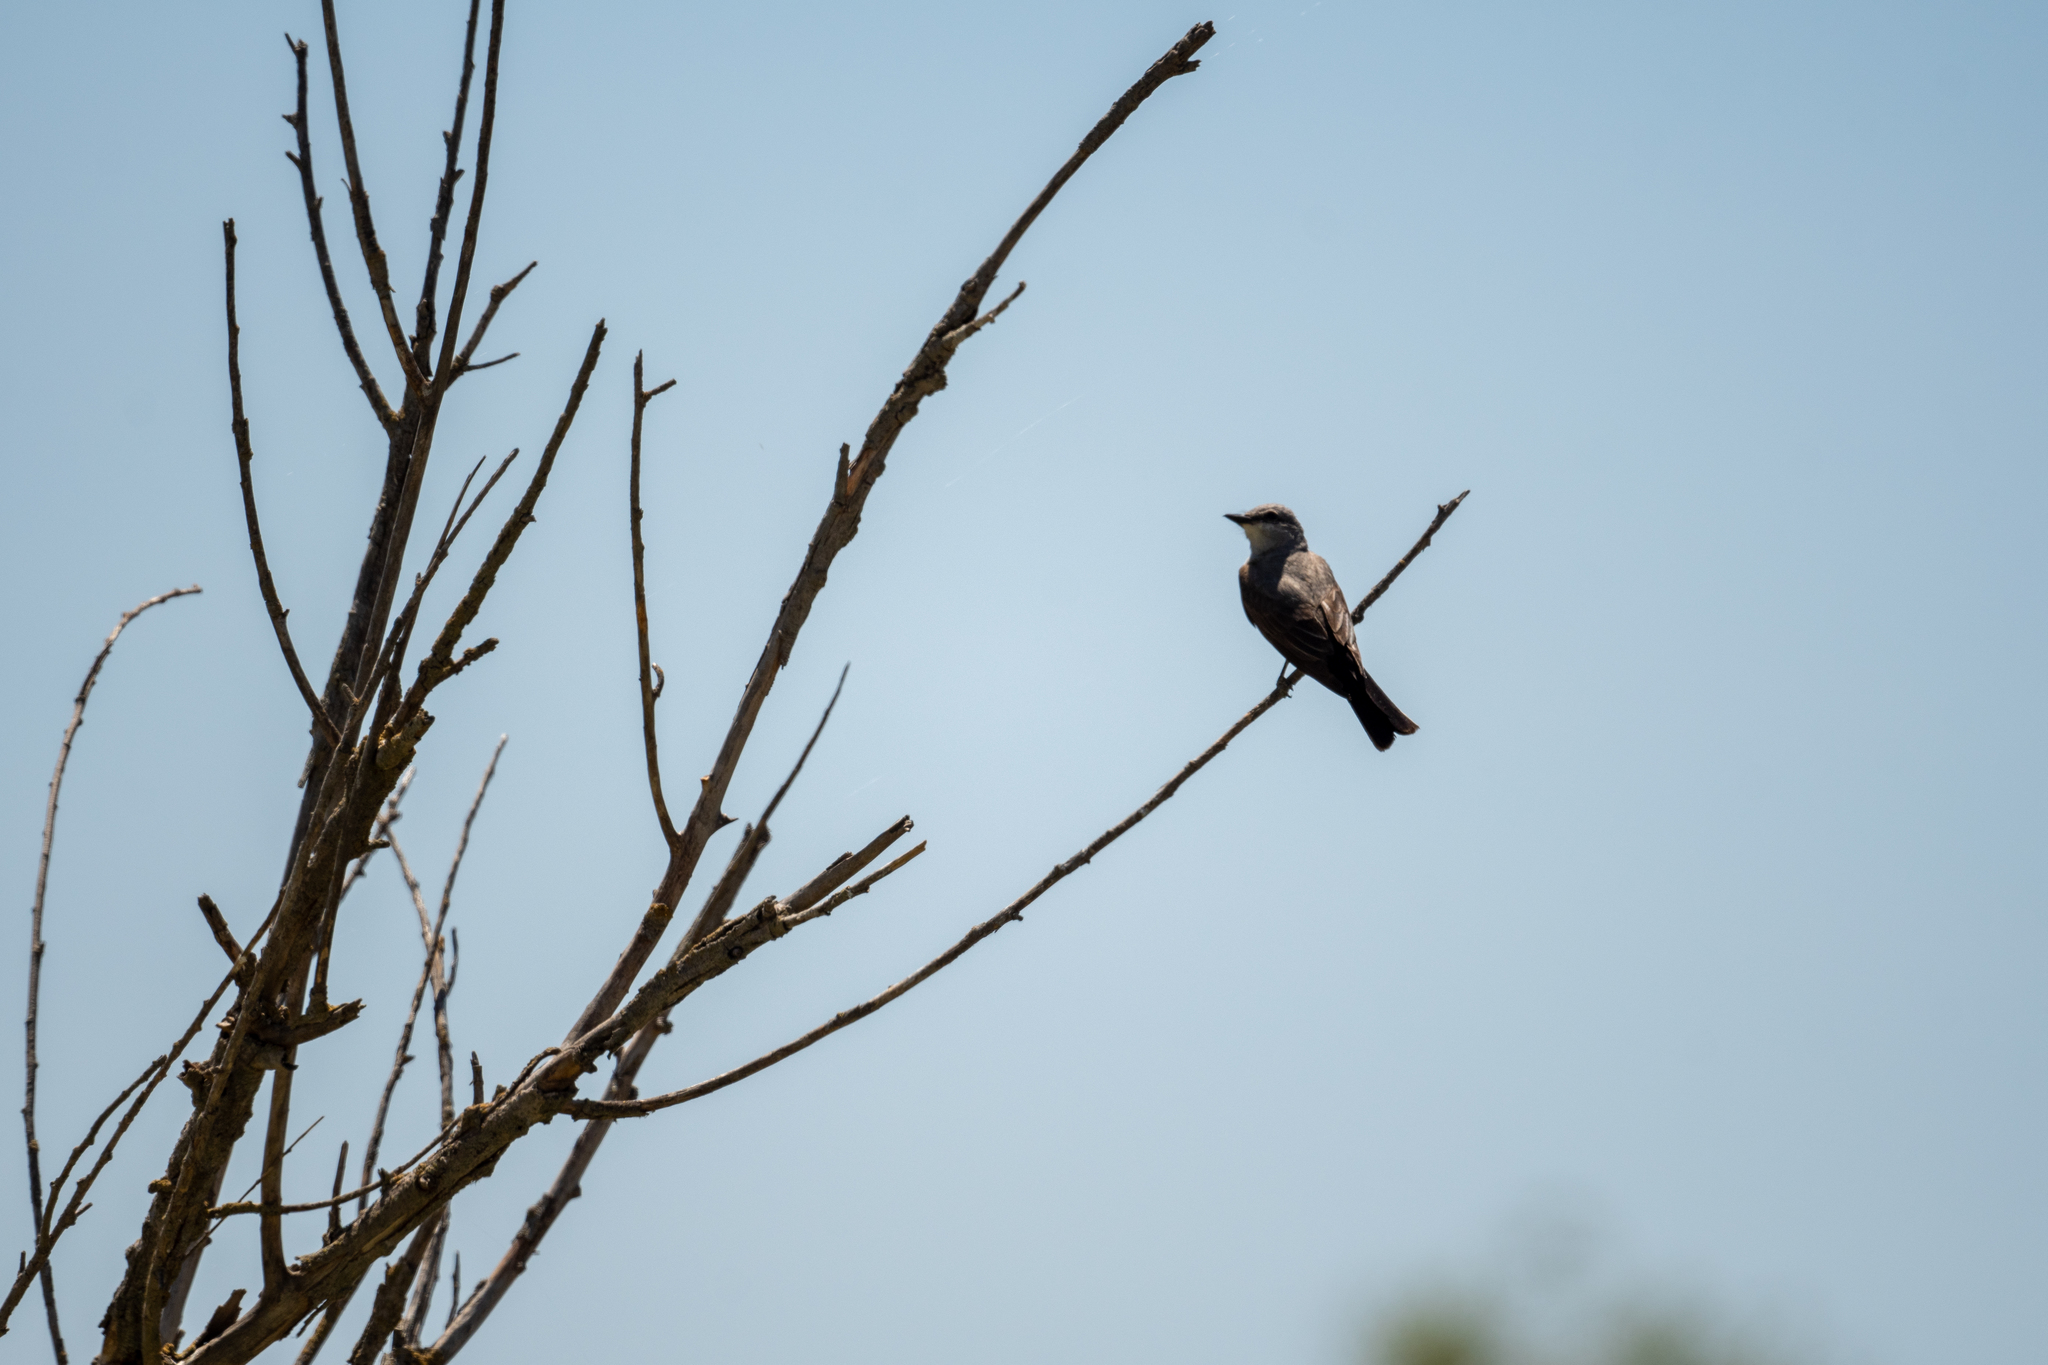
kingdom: Animalia
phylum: Chordata
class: Aves
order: Passeriformes
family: Tyrannidae
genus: Tyrannus
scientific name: Tyrannus verticalis
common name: Western kingbird
